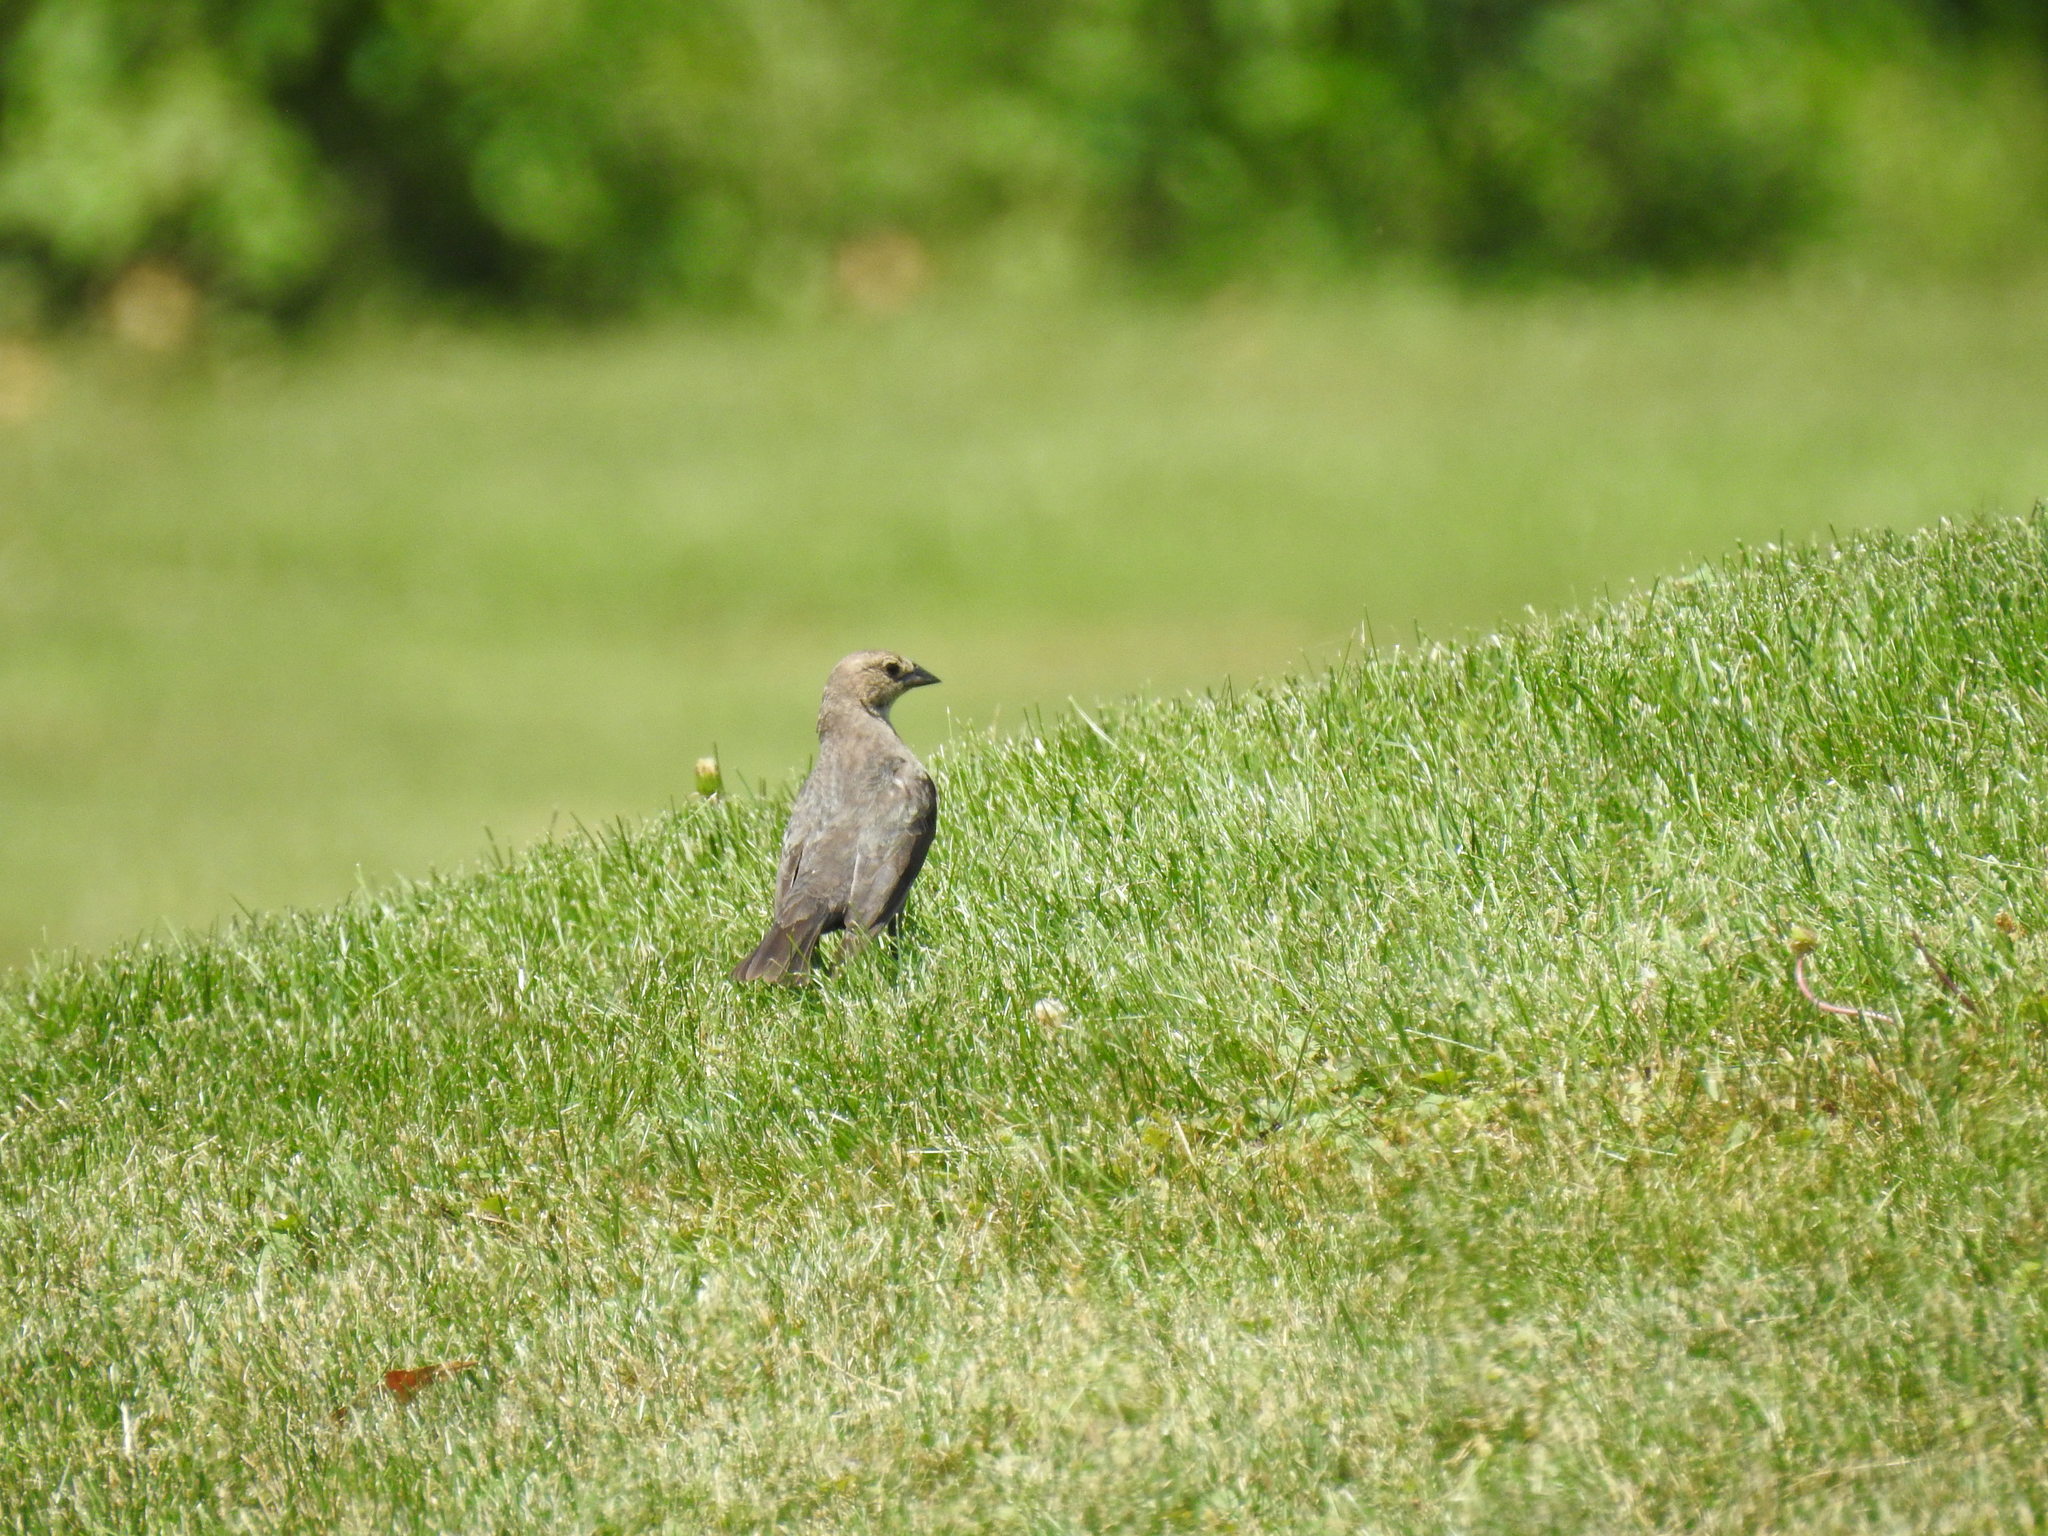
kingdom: Animalia
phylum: Chordata
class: Aves
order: Passeriformes
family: Icteridae
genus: Molothrus
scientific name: Molothrus ater
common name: Brown-headed cowbird
